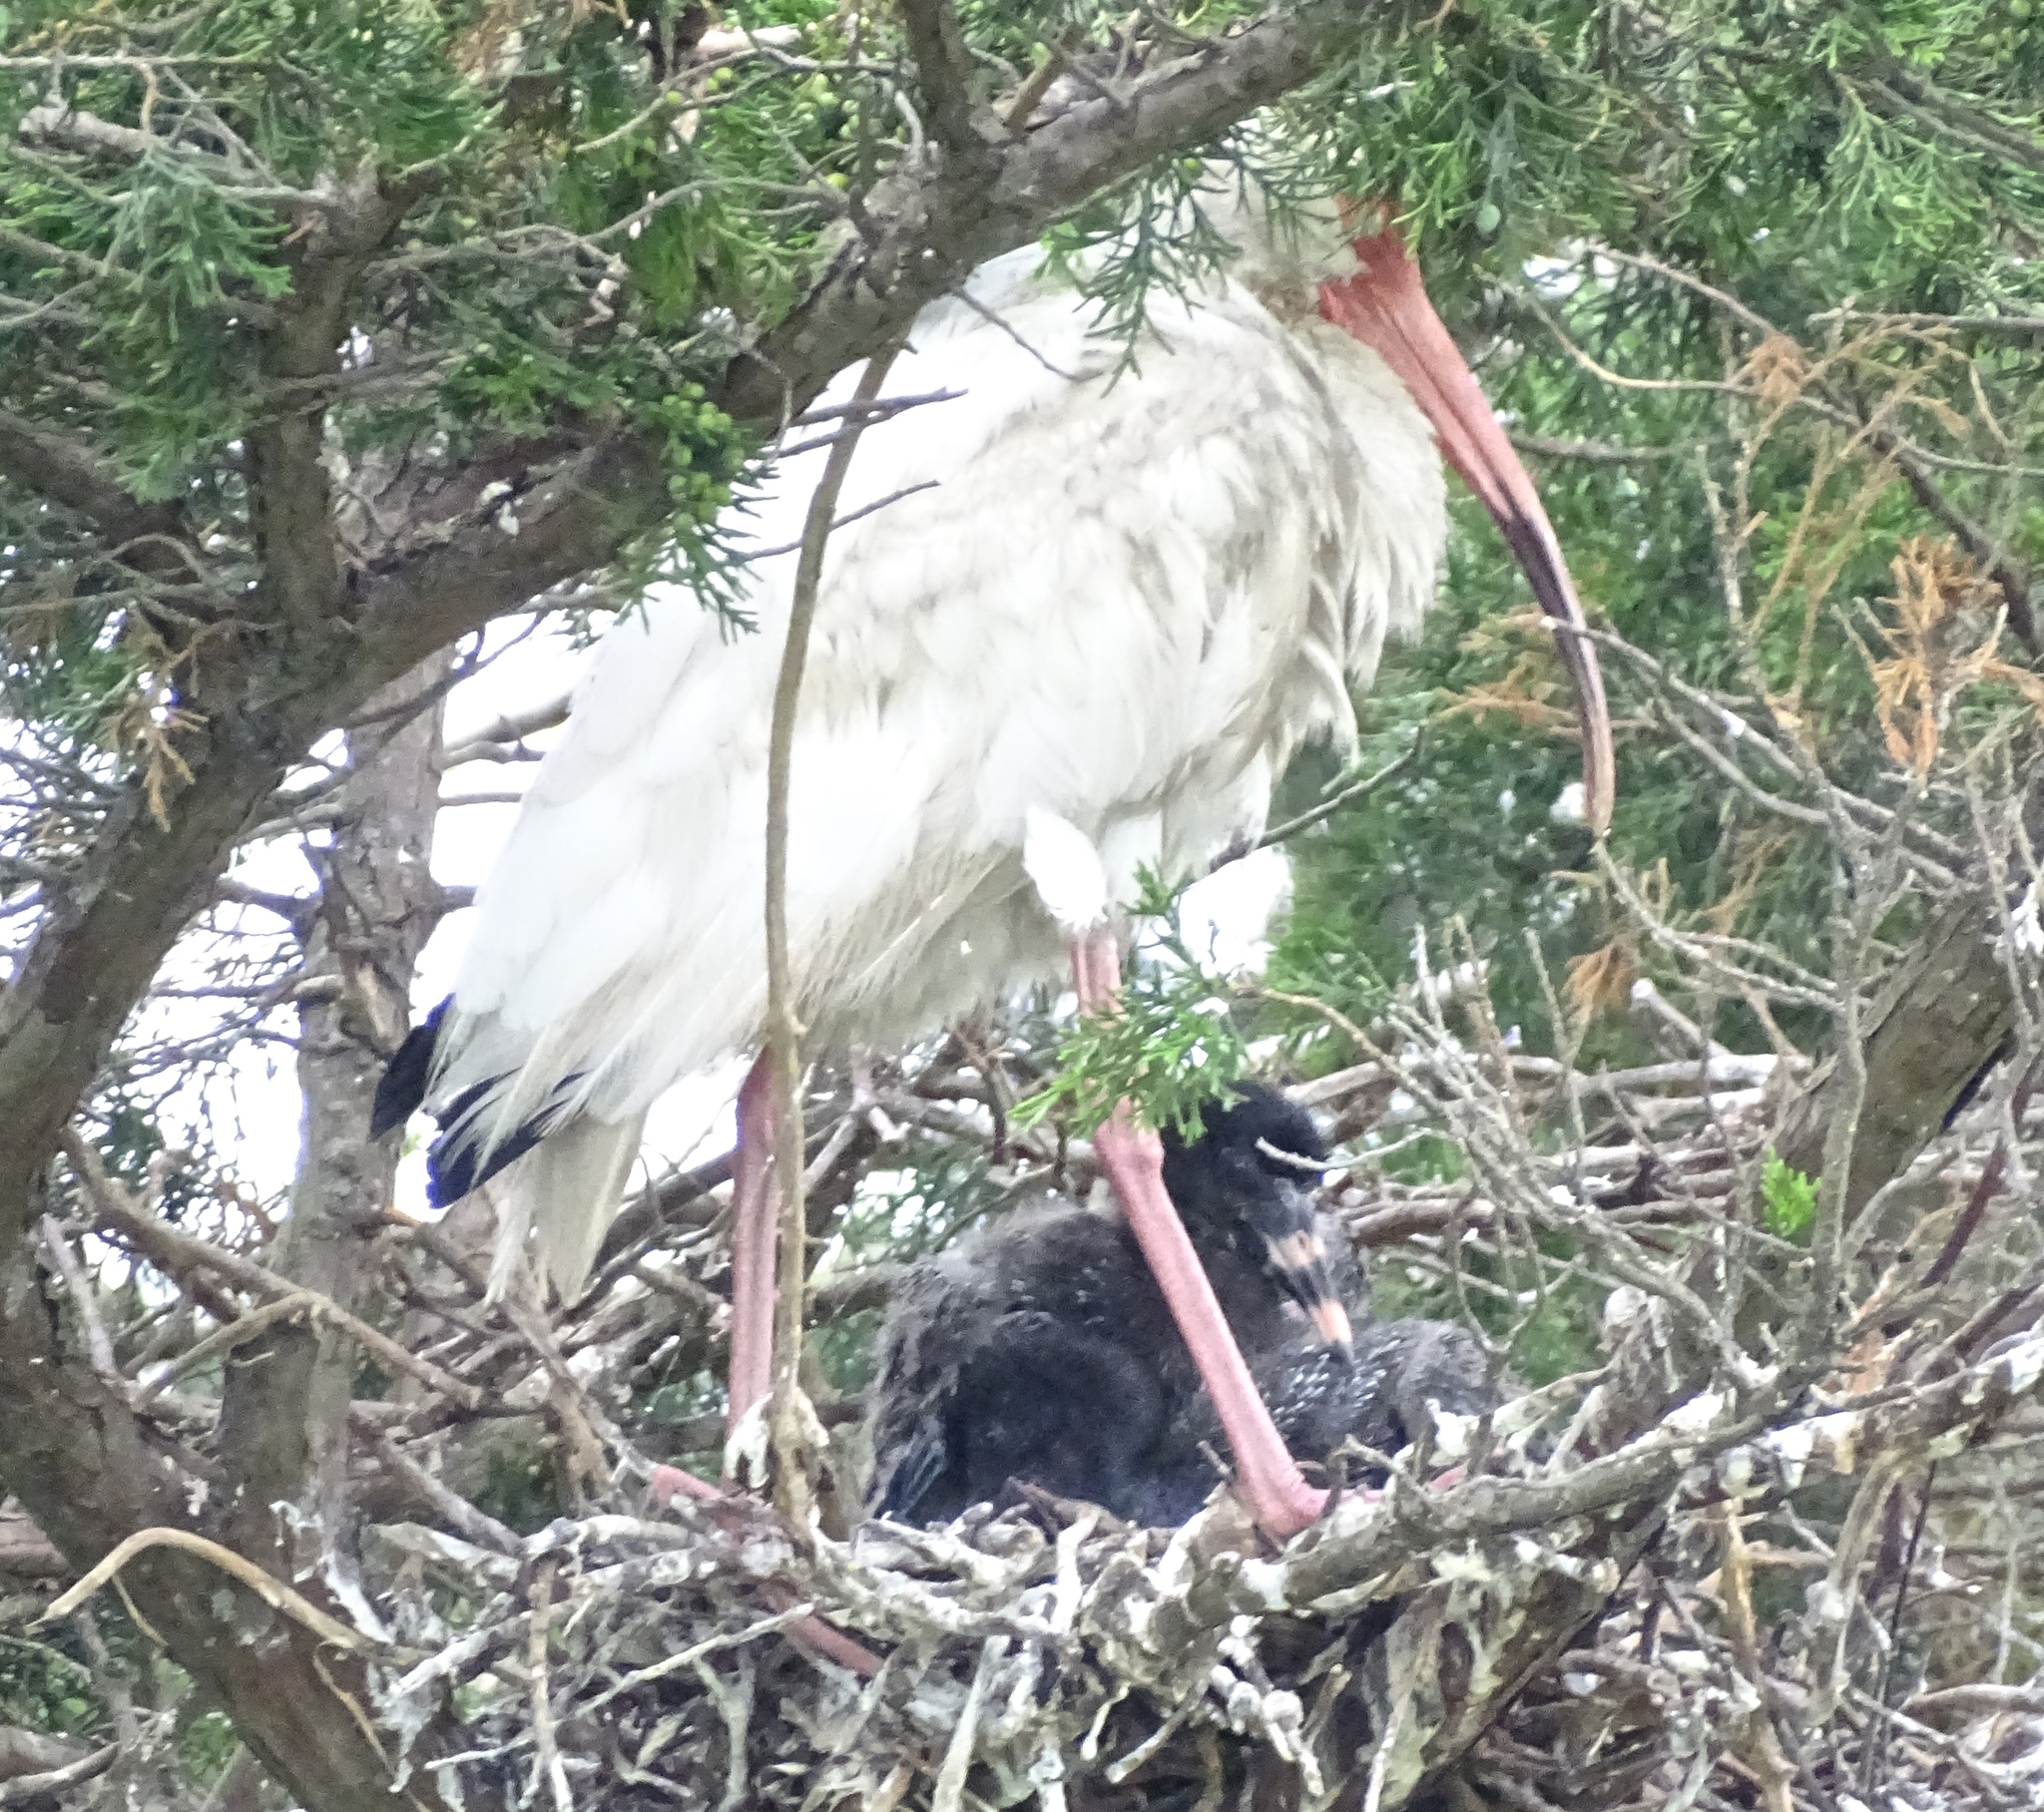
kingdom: Animalia
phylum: Chordata
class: Aves
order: Pelecaniformes
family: Threskiornithidae
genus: Eudocimus
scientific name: Eudocimus albus
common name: White ibis
